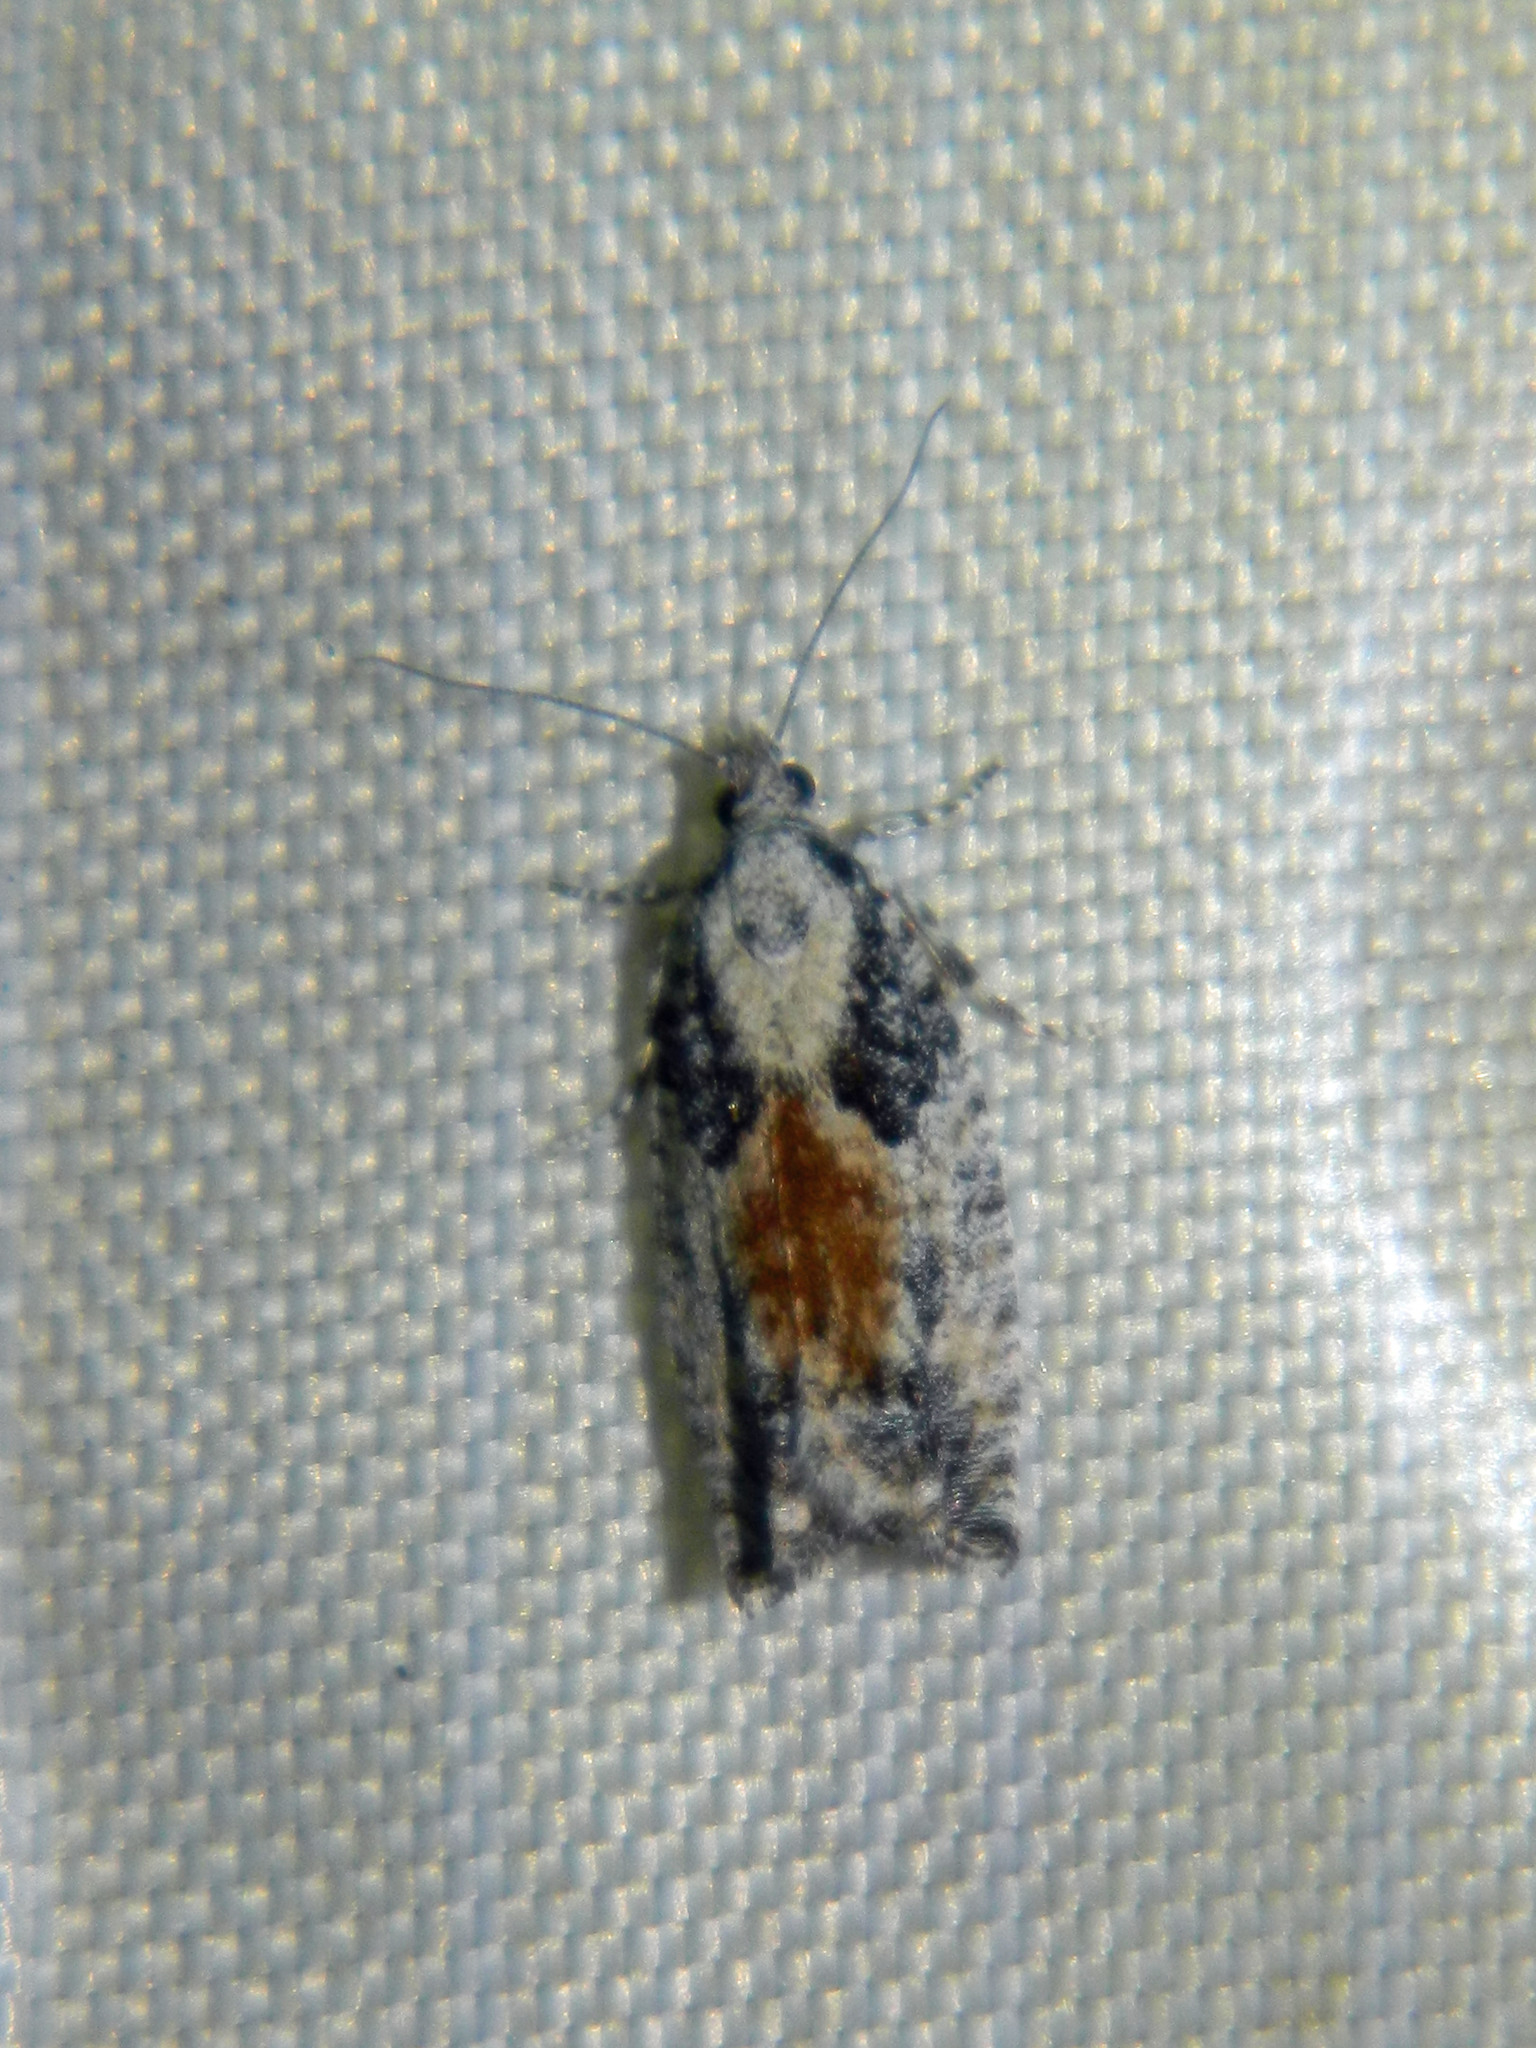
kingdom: Animalia
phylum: Arthropoda
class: Insecta
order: Lepidoptera
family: Tortricidae
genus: Epinotia
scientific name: Epinotia cinereana
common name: Grey aspen bell
